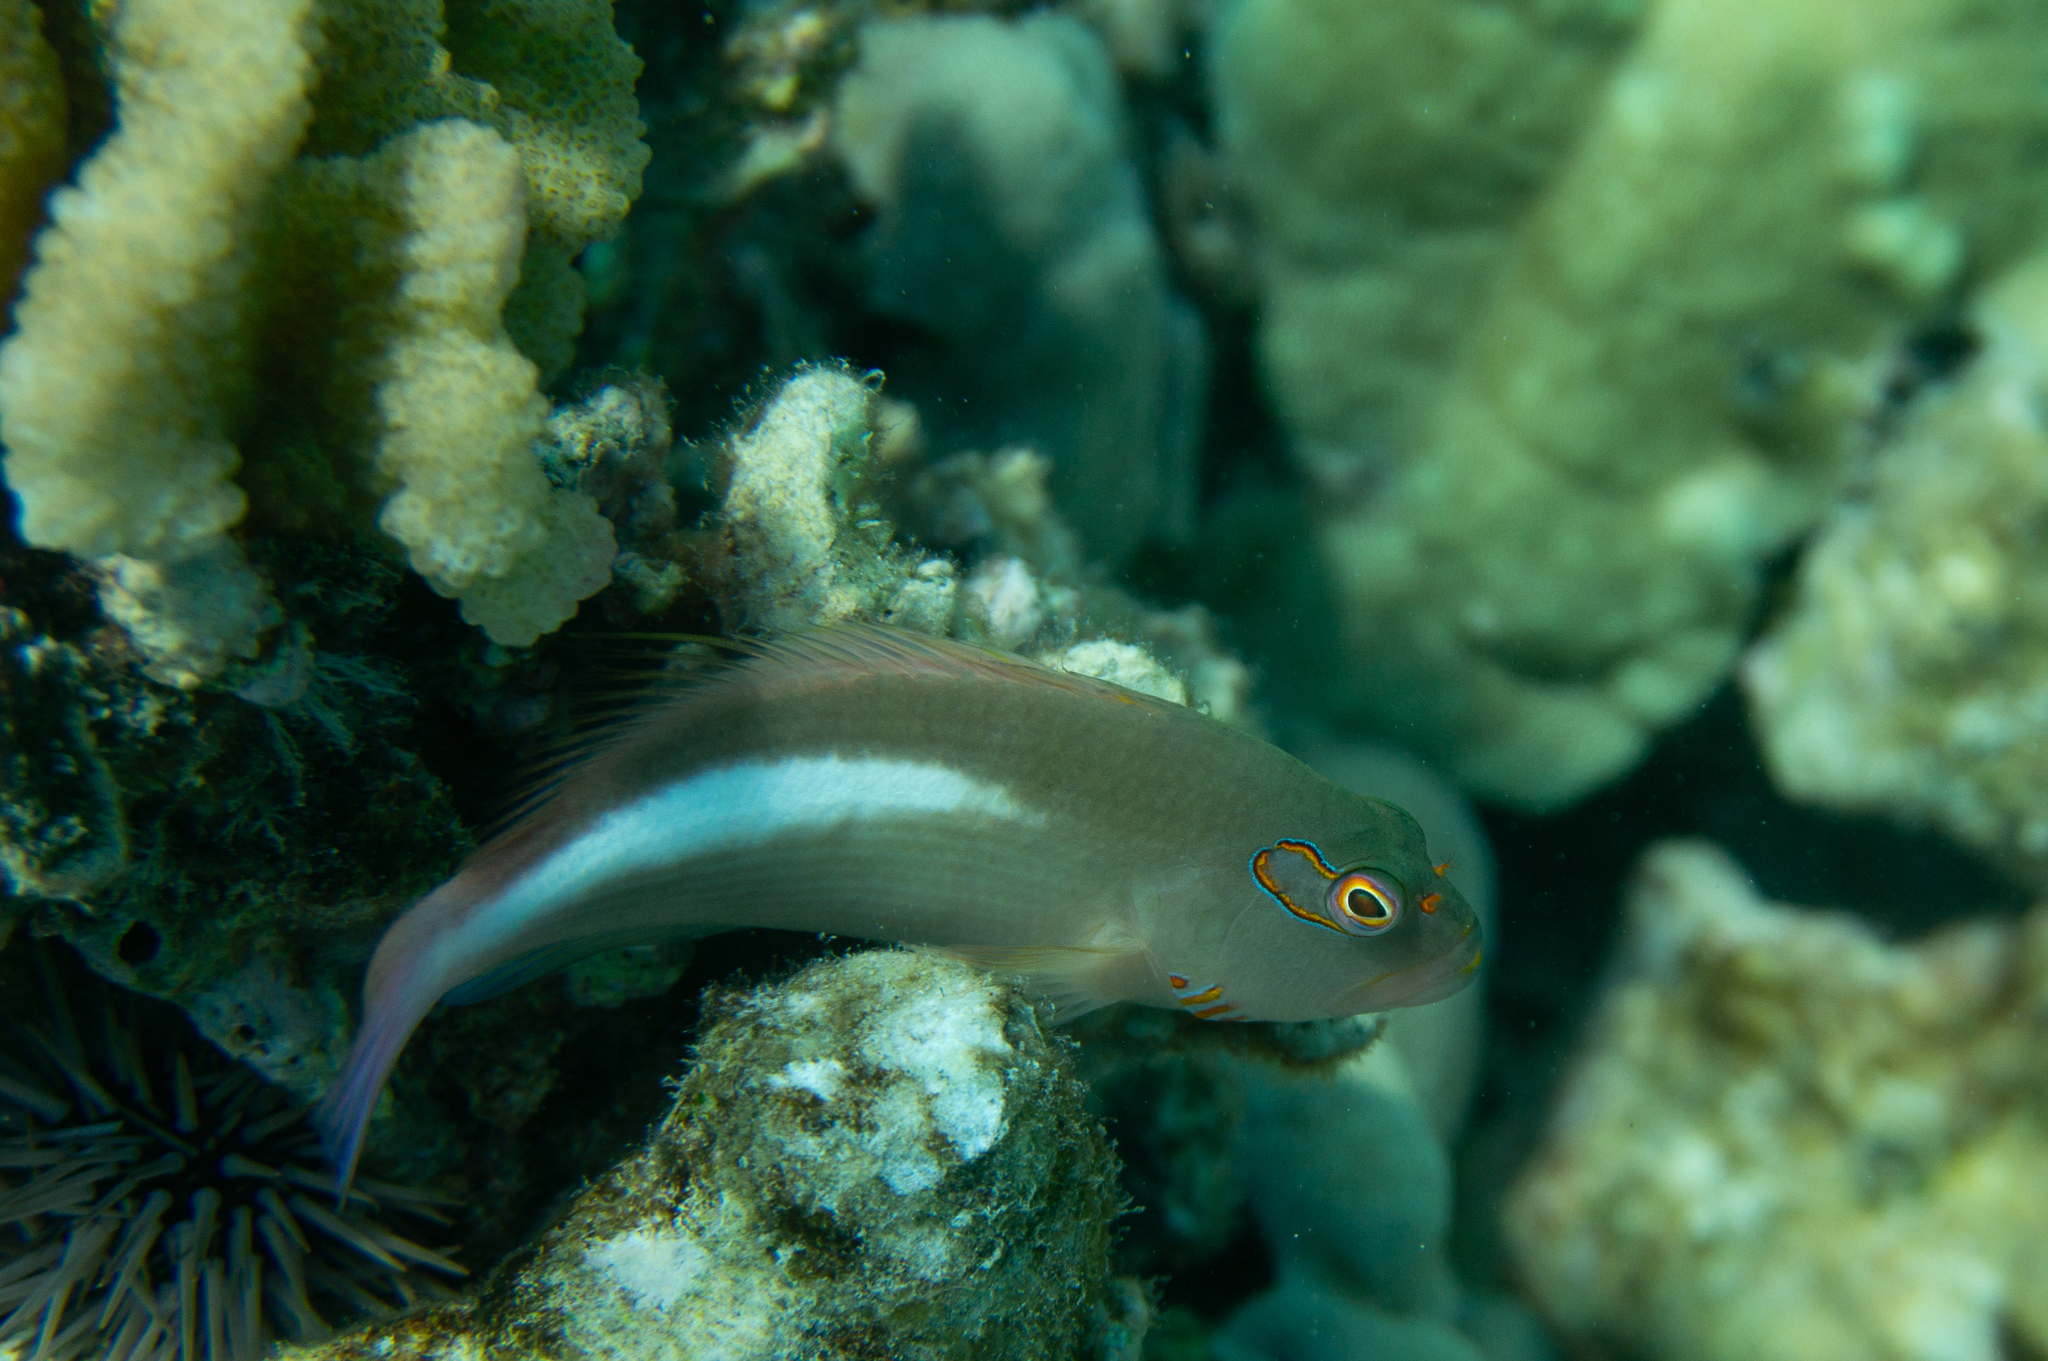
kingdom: Animalia
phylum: Chordata
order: Perciformes
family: Cirrhitidae
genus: Paracirrhites
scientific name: Paracirrhites arcatus
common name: Arc-eye hawkfish
